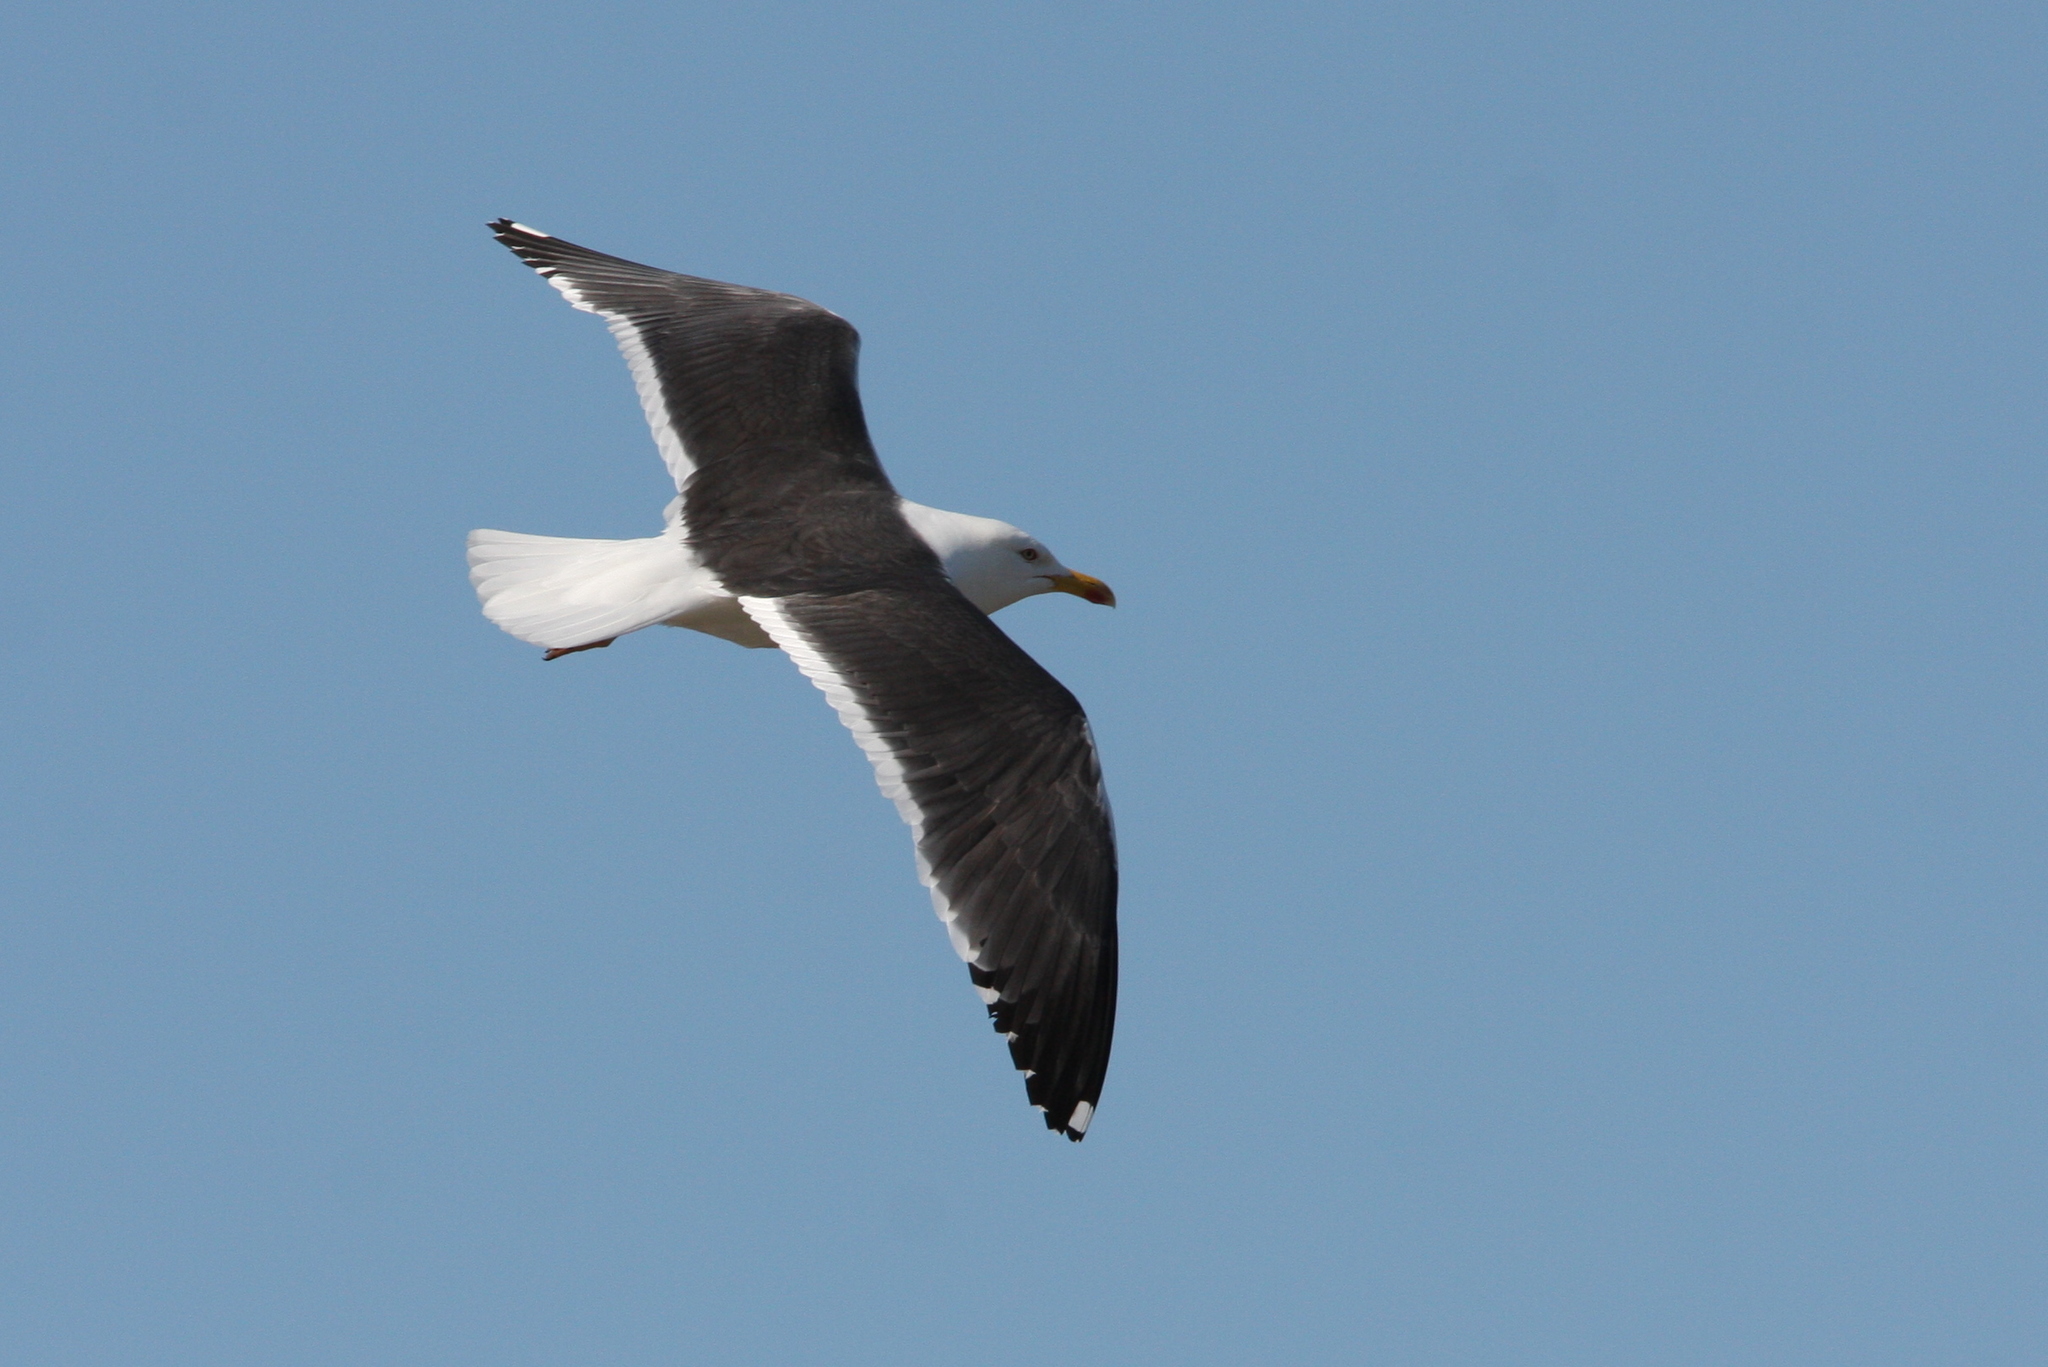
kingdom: Animalia
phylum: Chordata
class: Aves
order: Charadriiformes
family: Laridae
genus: Larus
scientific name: Larus fuscus
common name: Lesser black-backed gull
